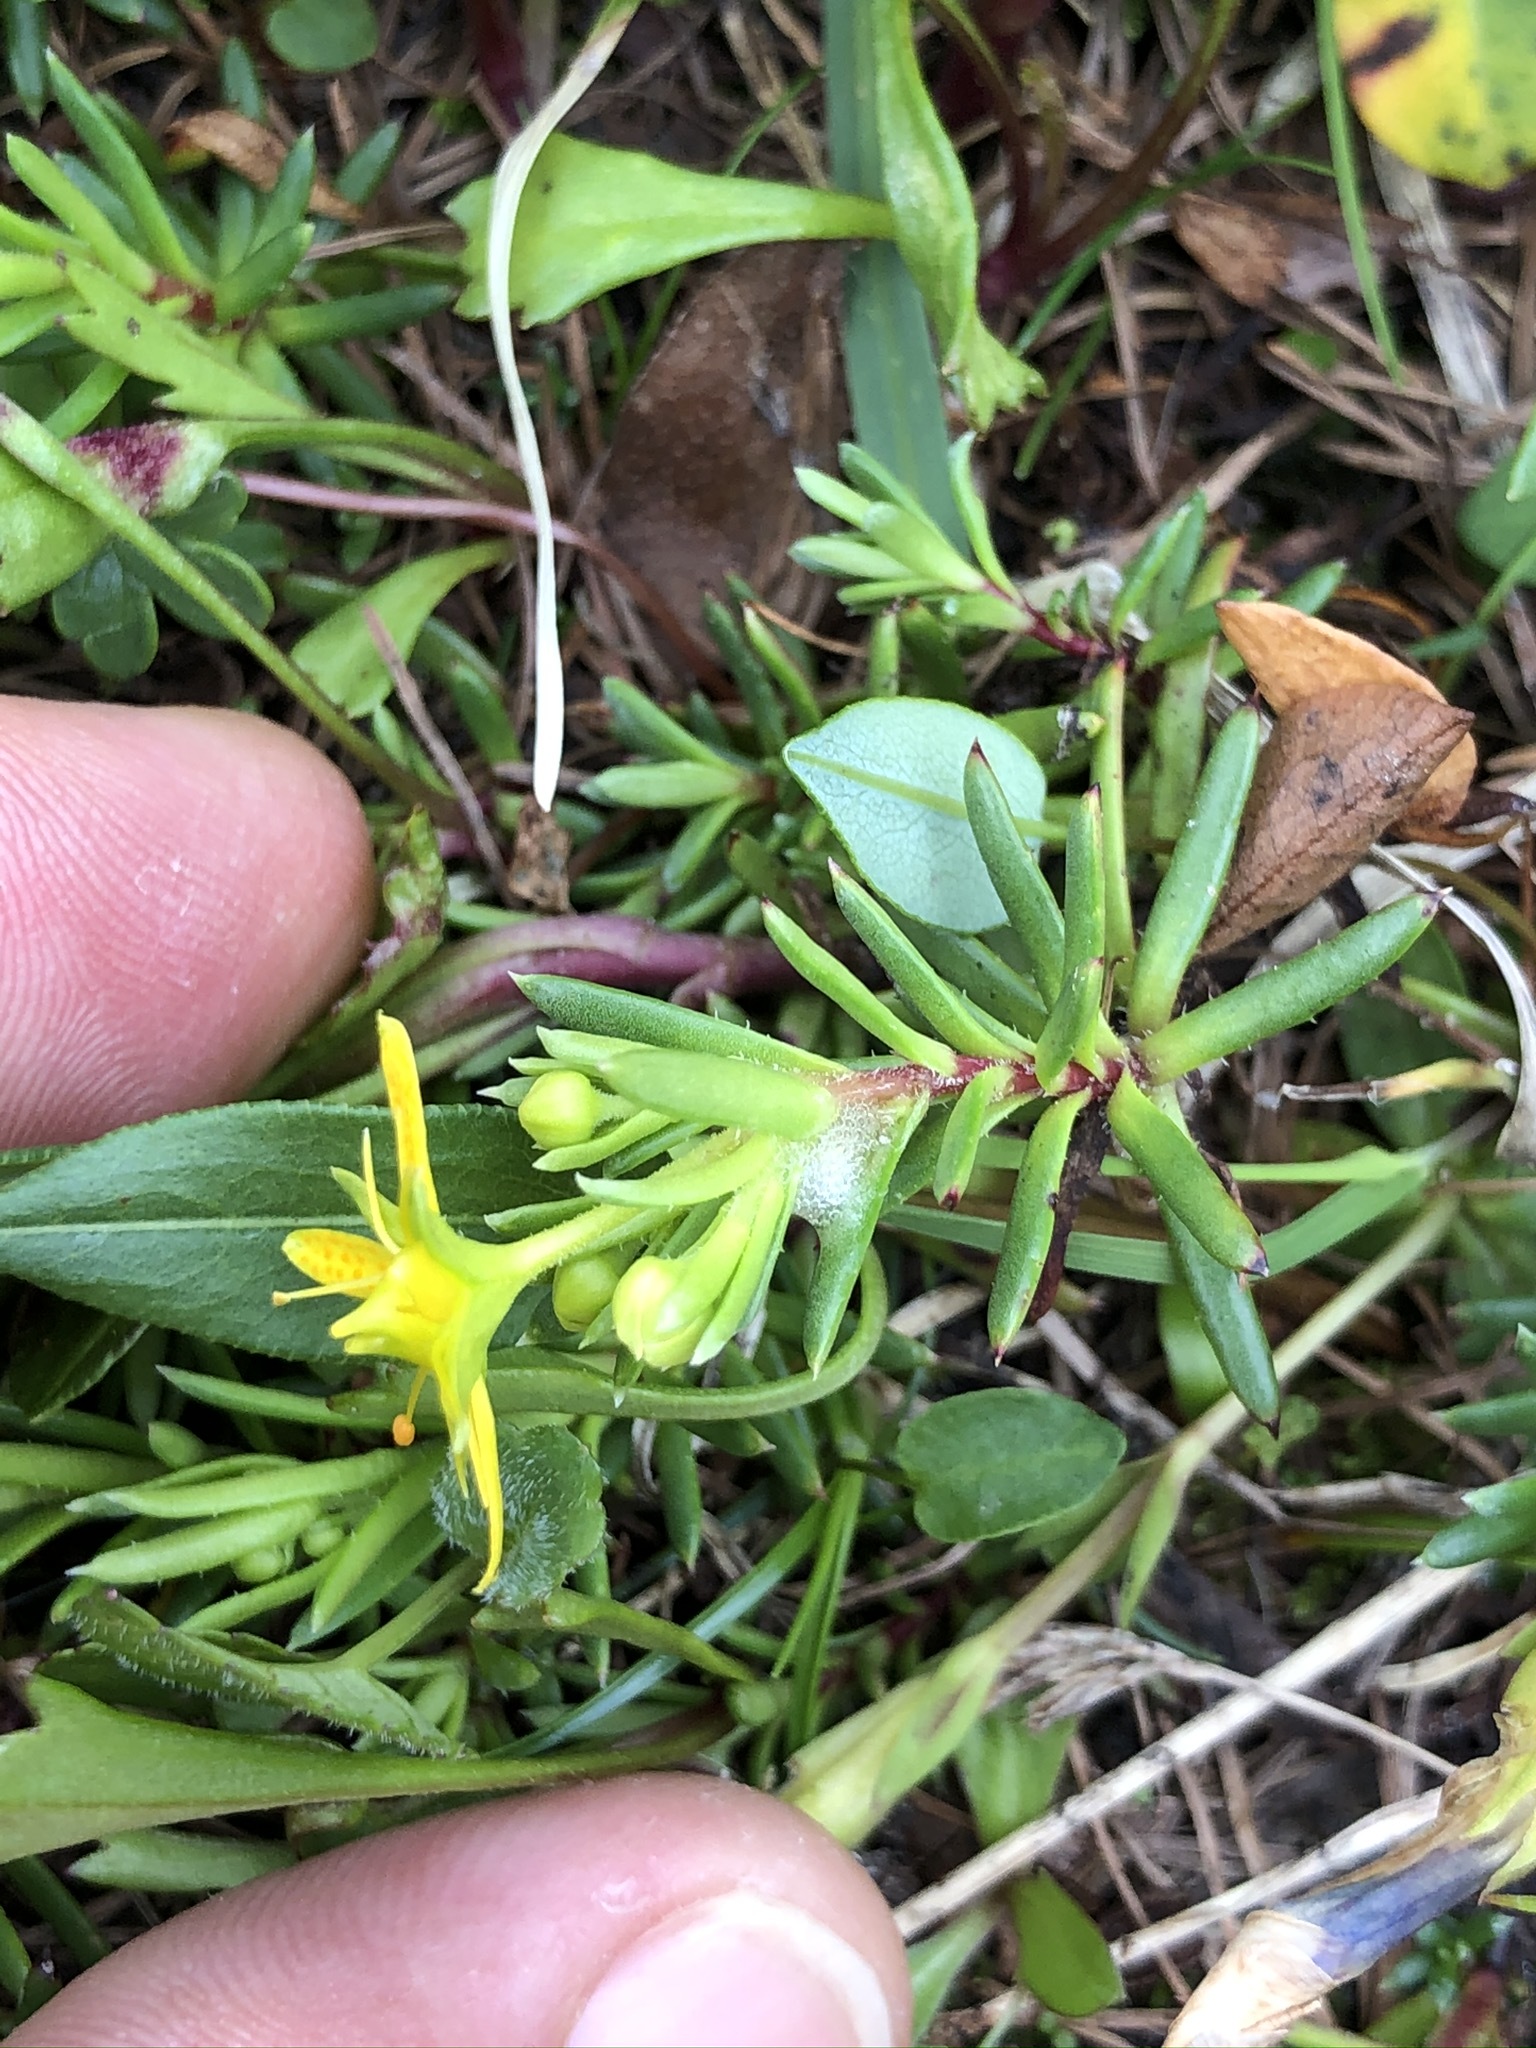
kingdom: Plantae
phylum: Tracheophyta
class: Magnoliopsida
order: Saxifragales
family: Saxifragaceae
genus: Saxifraga
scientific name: Saxifraga aizoides
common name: Yellow mountain saxifrage
